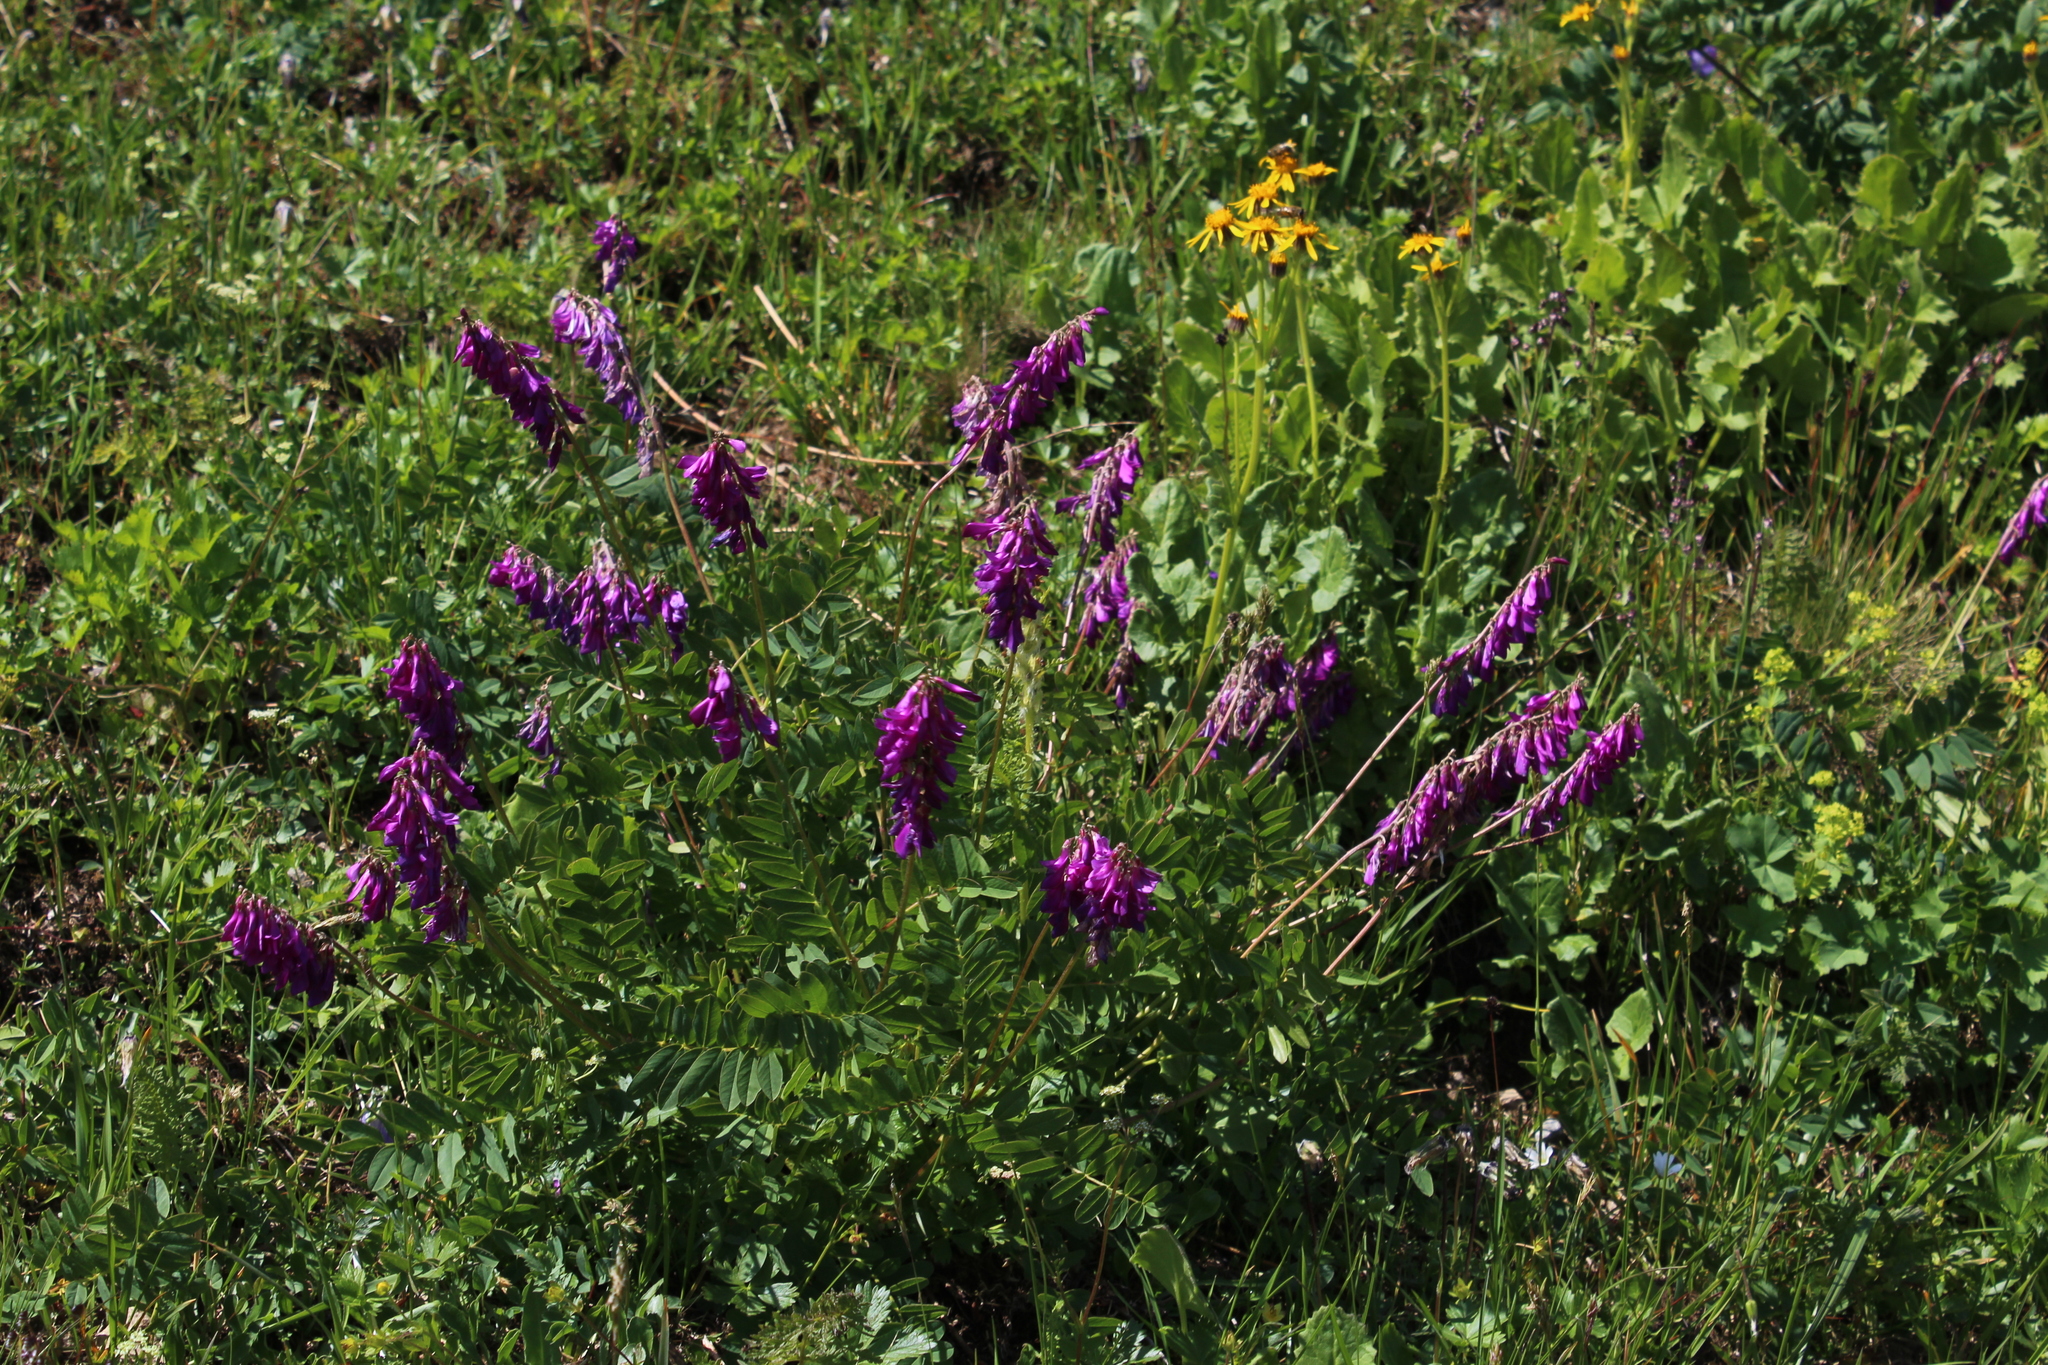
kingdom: Plantae
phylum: Tracheophyta
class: Magnoliopsida
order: Fabales
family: Fabaceae
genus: Hedysarum
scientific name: Hedysarum caucasicum
